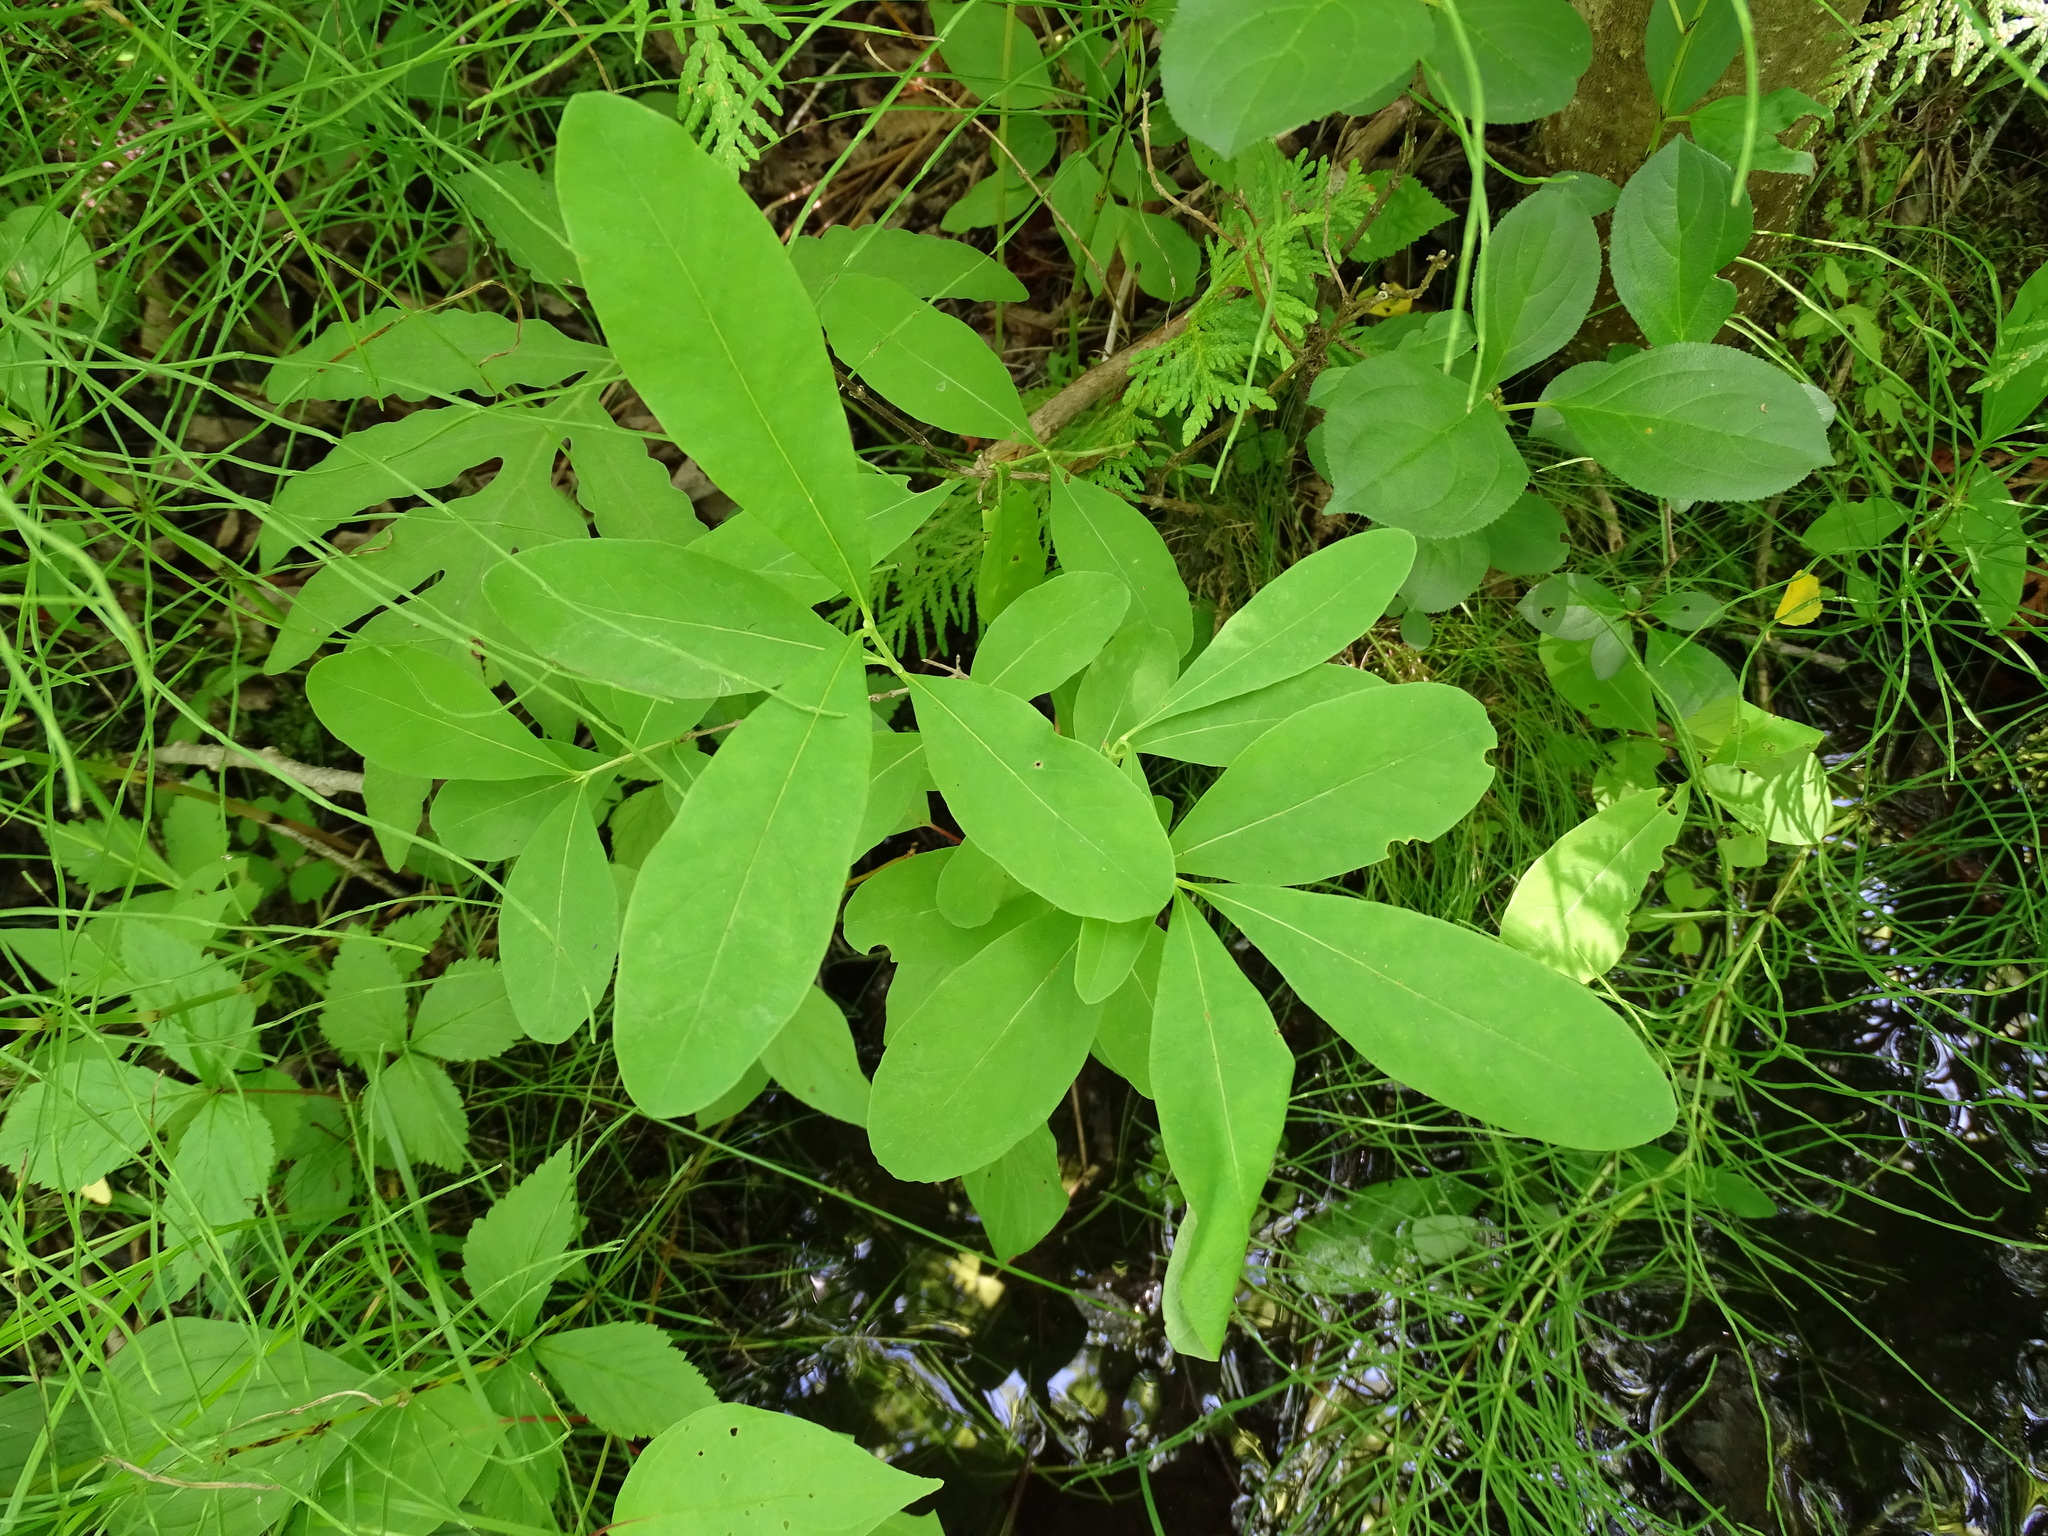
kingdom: Plantae
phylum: Tracheophyta
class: Magnoliopsida
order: Dipsacales
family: Caprifoliaceae
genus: Lonicera
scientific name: Lonicera oblongifolia
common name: Swamp fly honeysuckle
